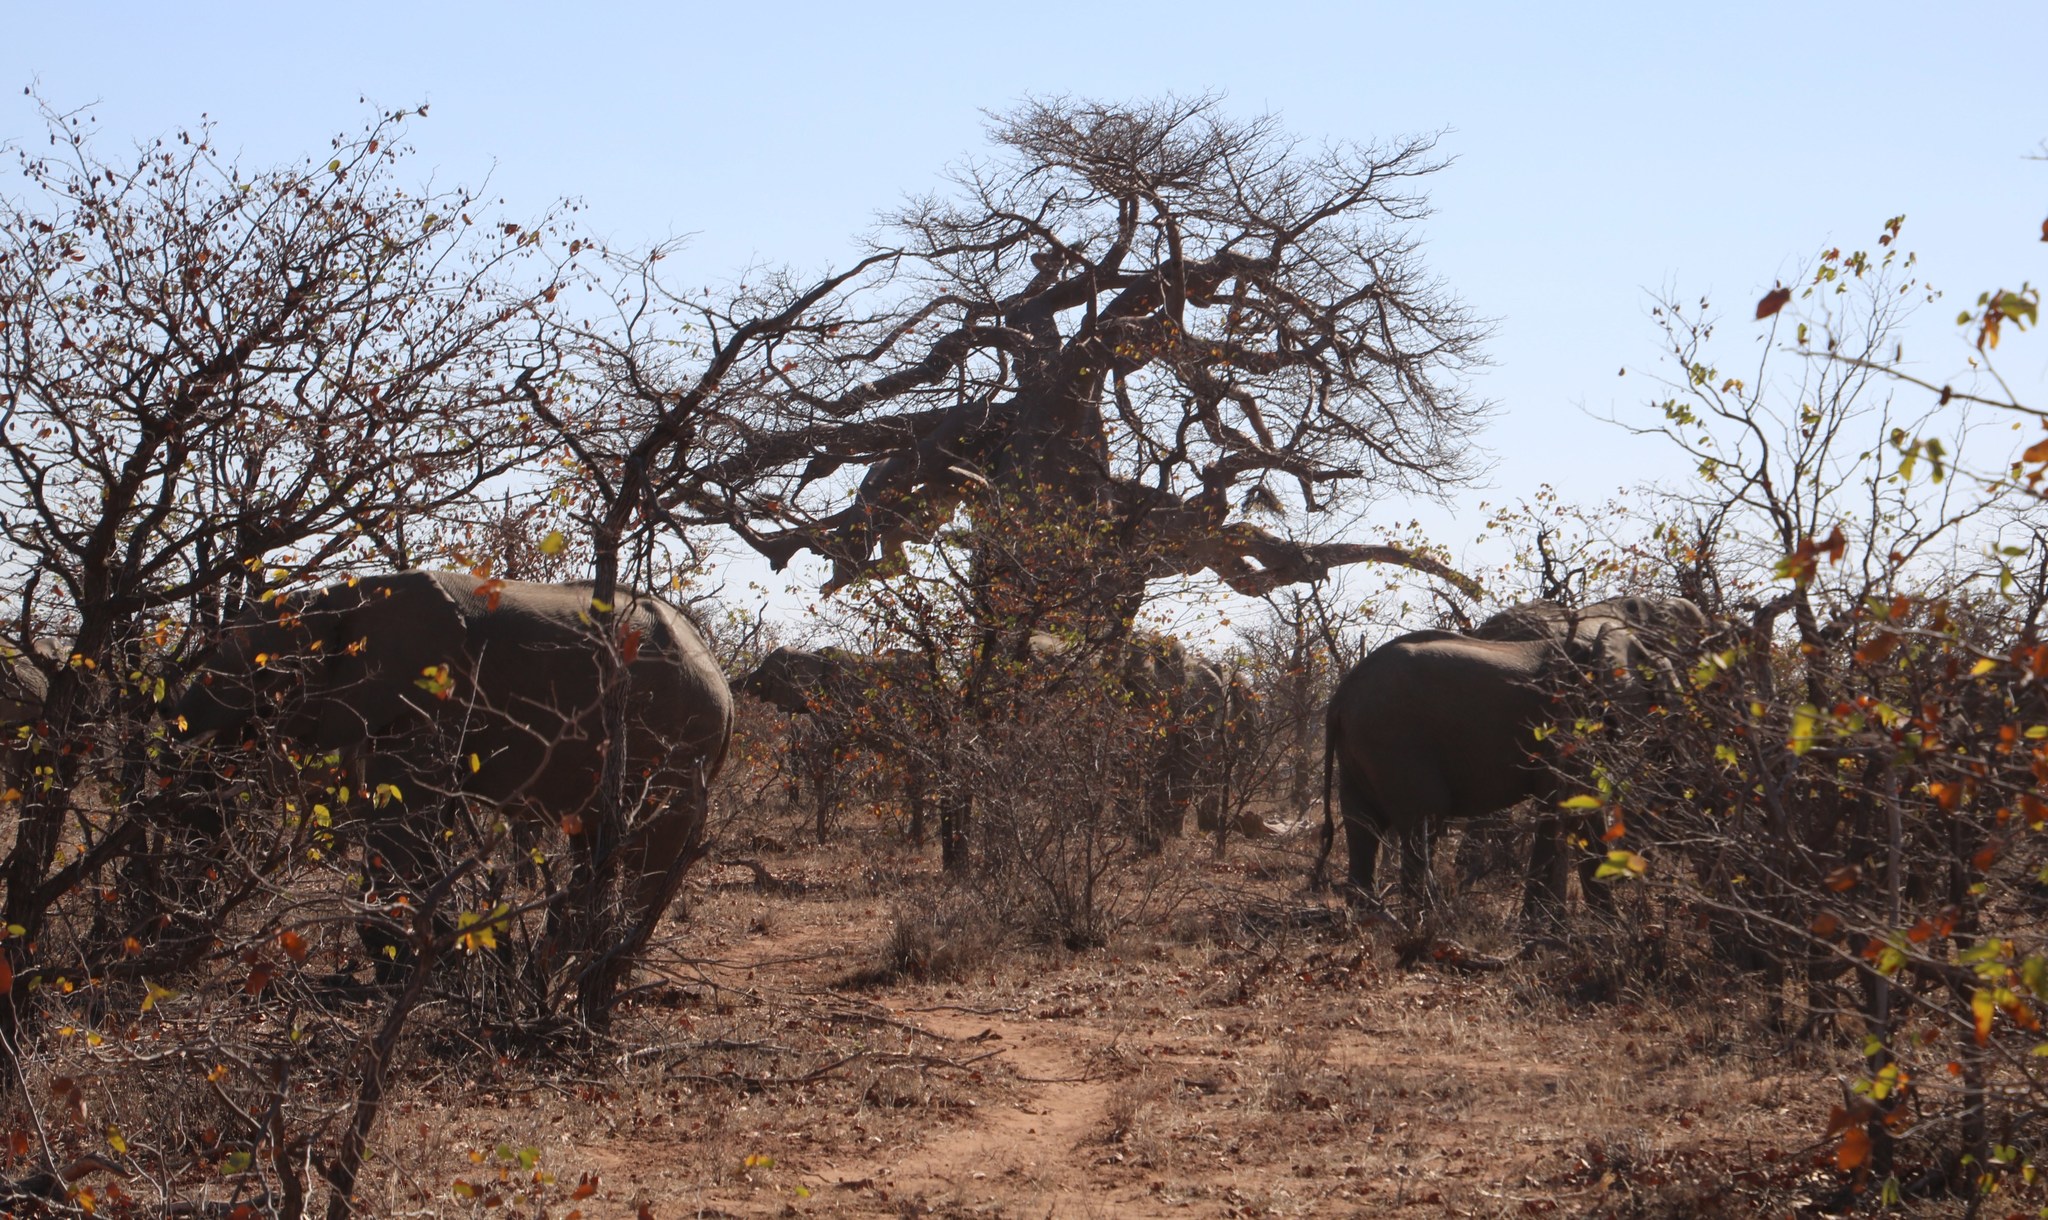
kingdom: Animalia
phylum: Chordata
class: Mammalia
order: Proboscidea
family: Elephantidae
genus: Loxodonta
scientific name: Loxodonta africana
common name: African elephant
